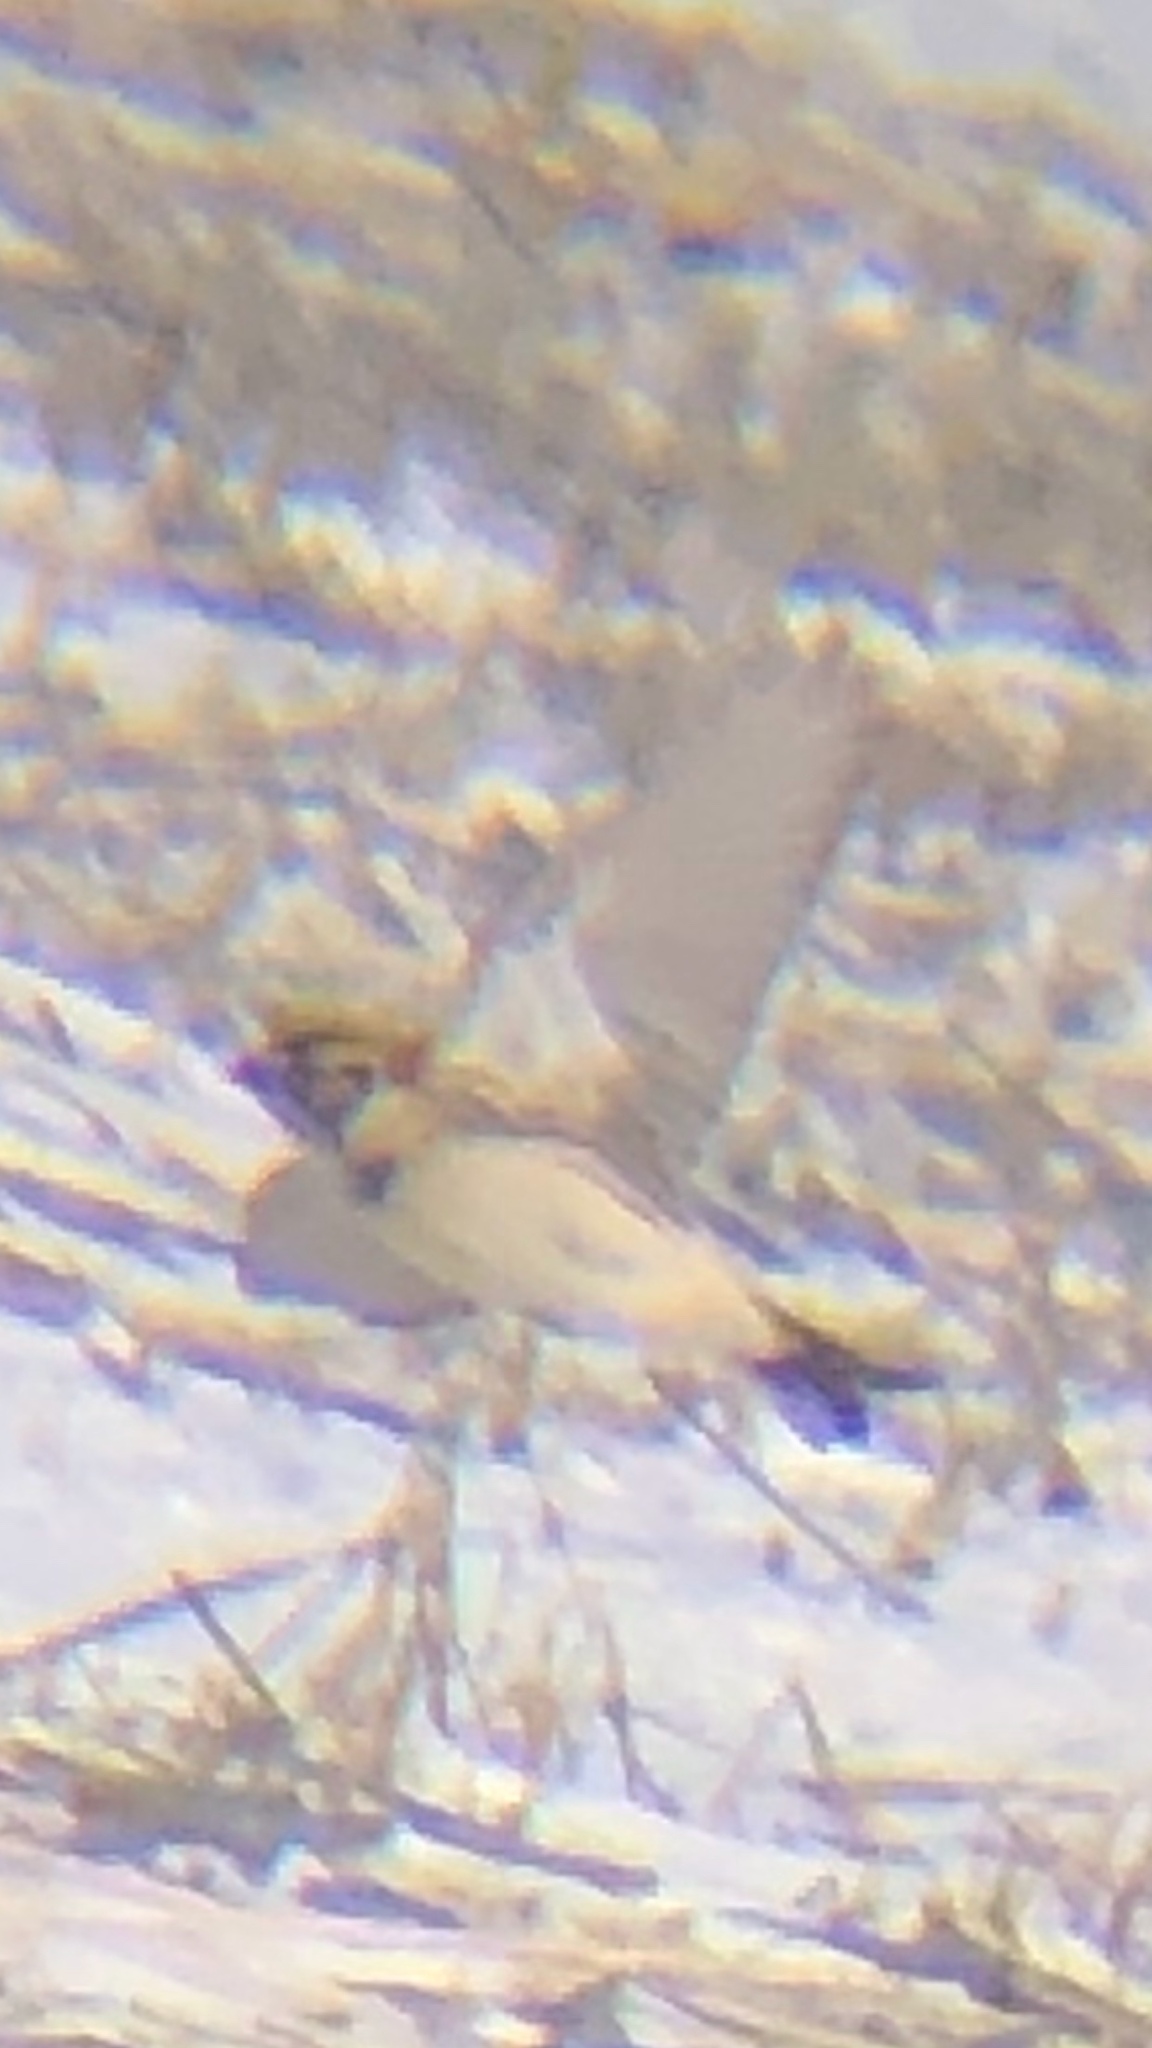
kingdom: Animalia
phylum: Chordata
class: Aves
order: Passeriformes
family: Calcariidae
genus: Calcarius
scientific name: Calcarius lapponicus
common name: Lapland longspur
